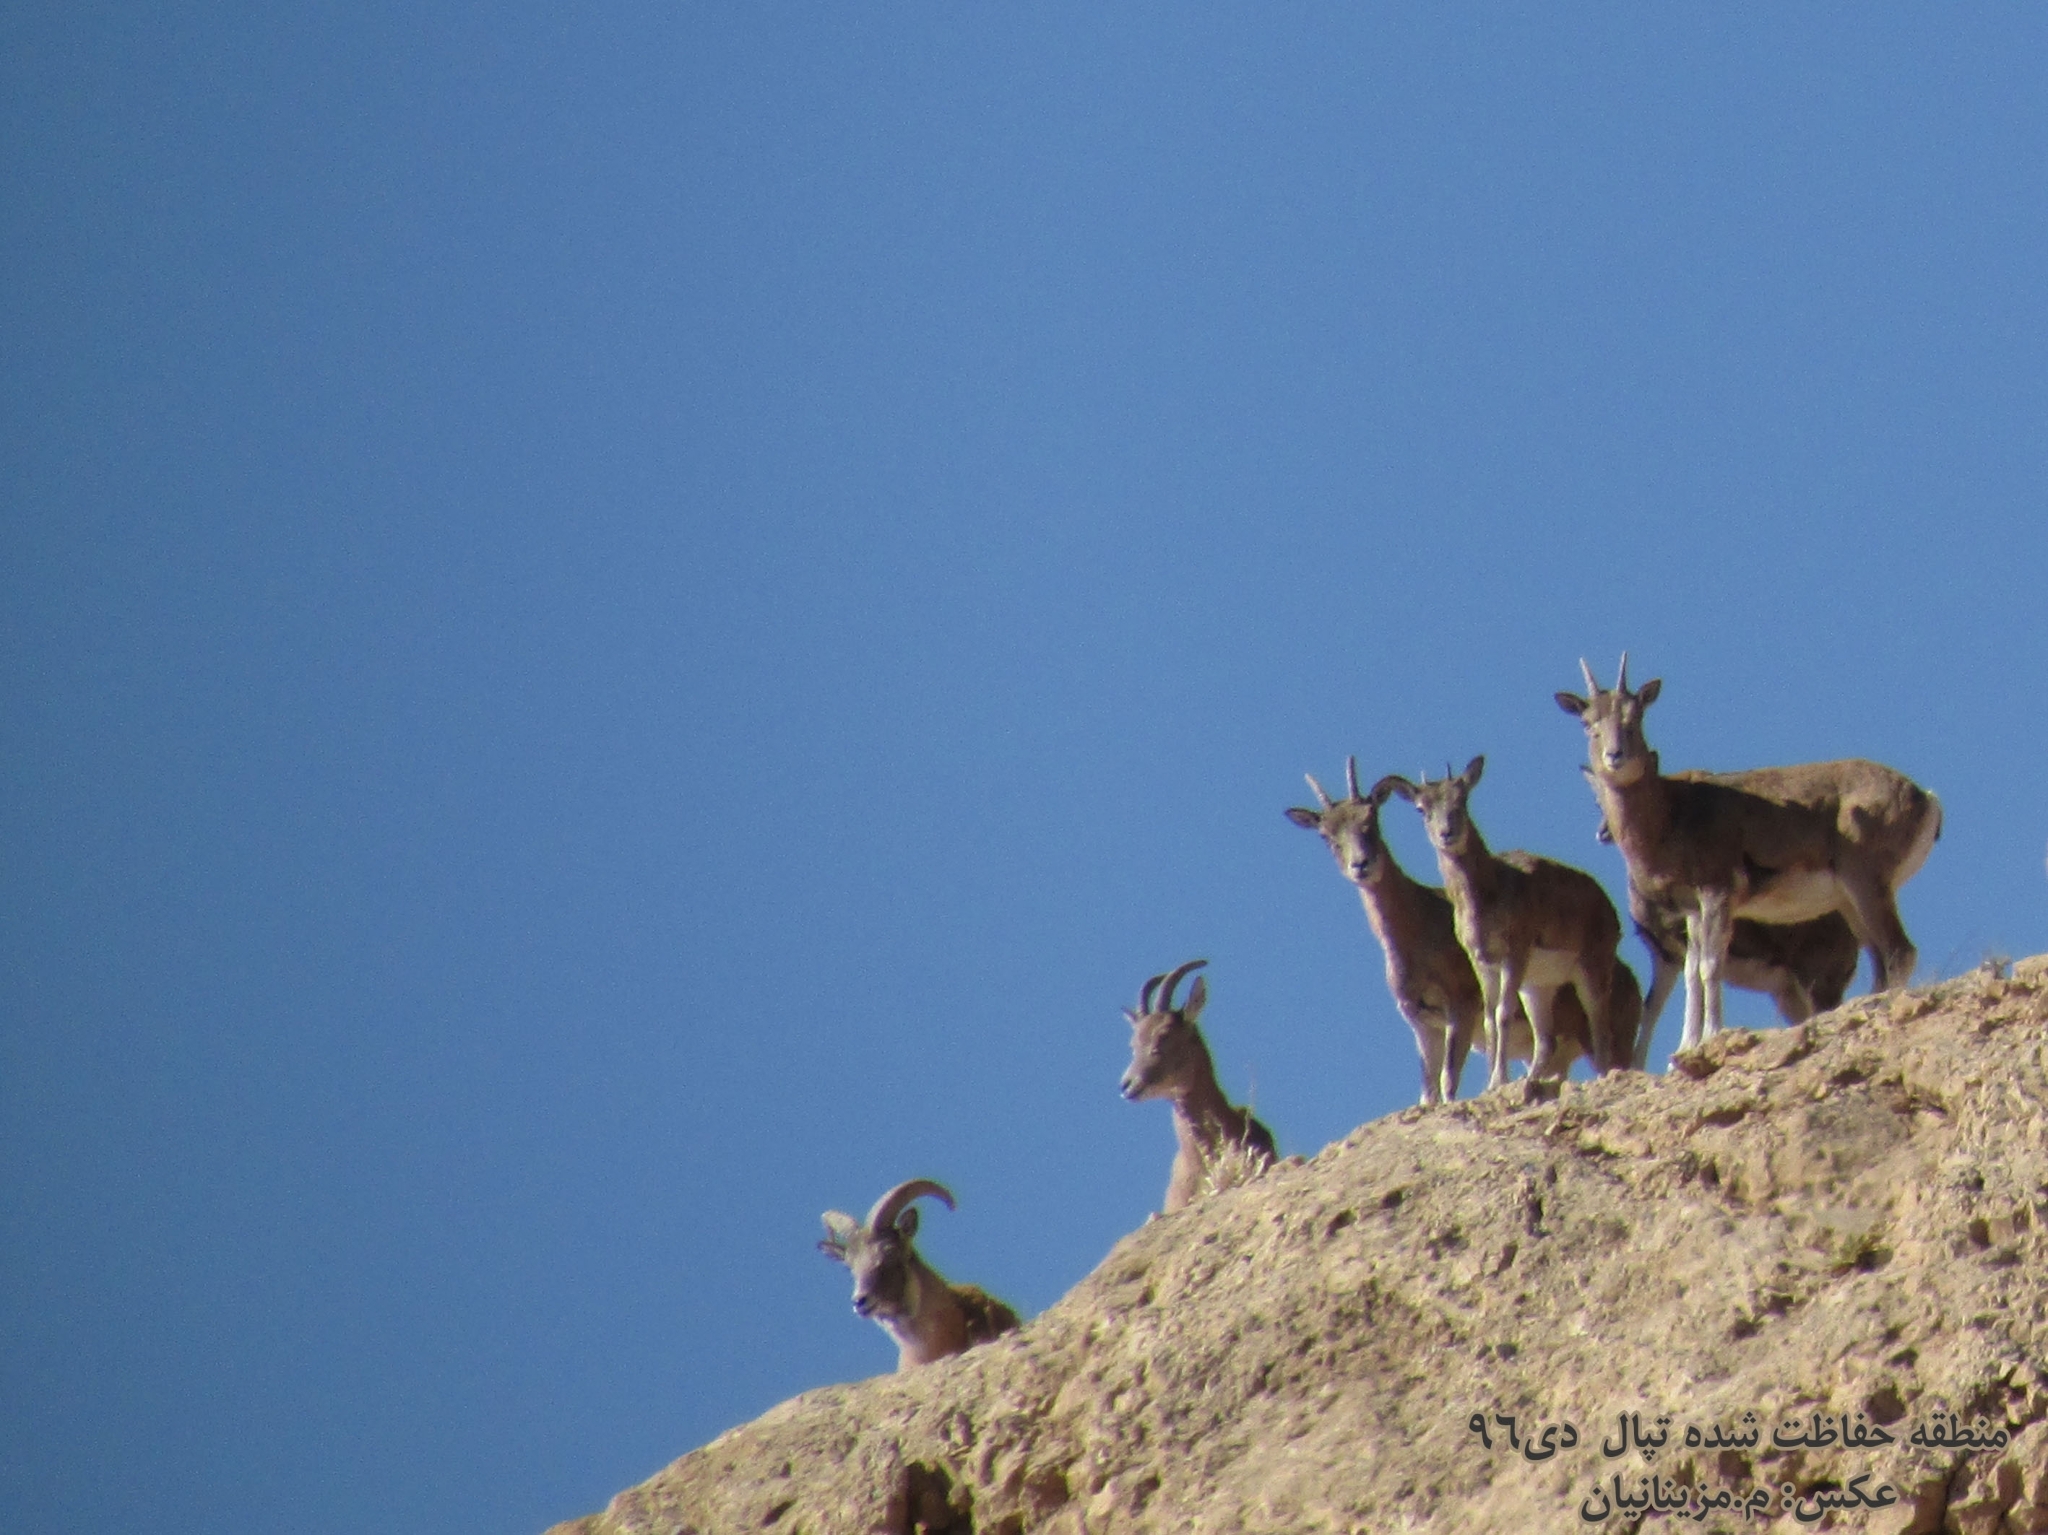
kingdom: Animalia
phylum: Chordata
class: Mammalia
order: Artiodactyla
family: Bovidae
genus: Ovis
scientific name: Ovis aries
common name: Domestic sheep
